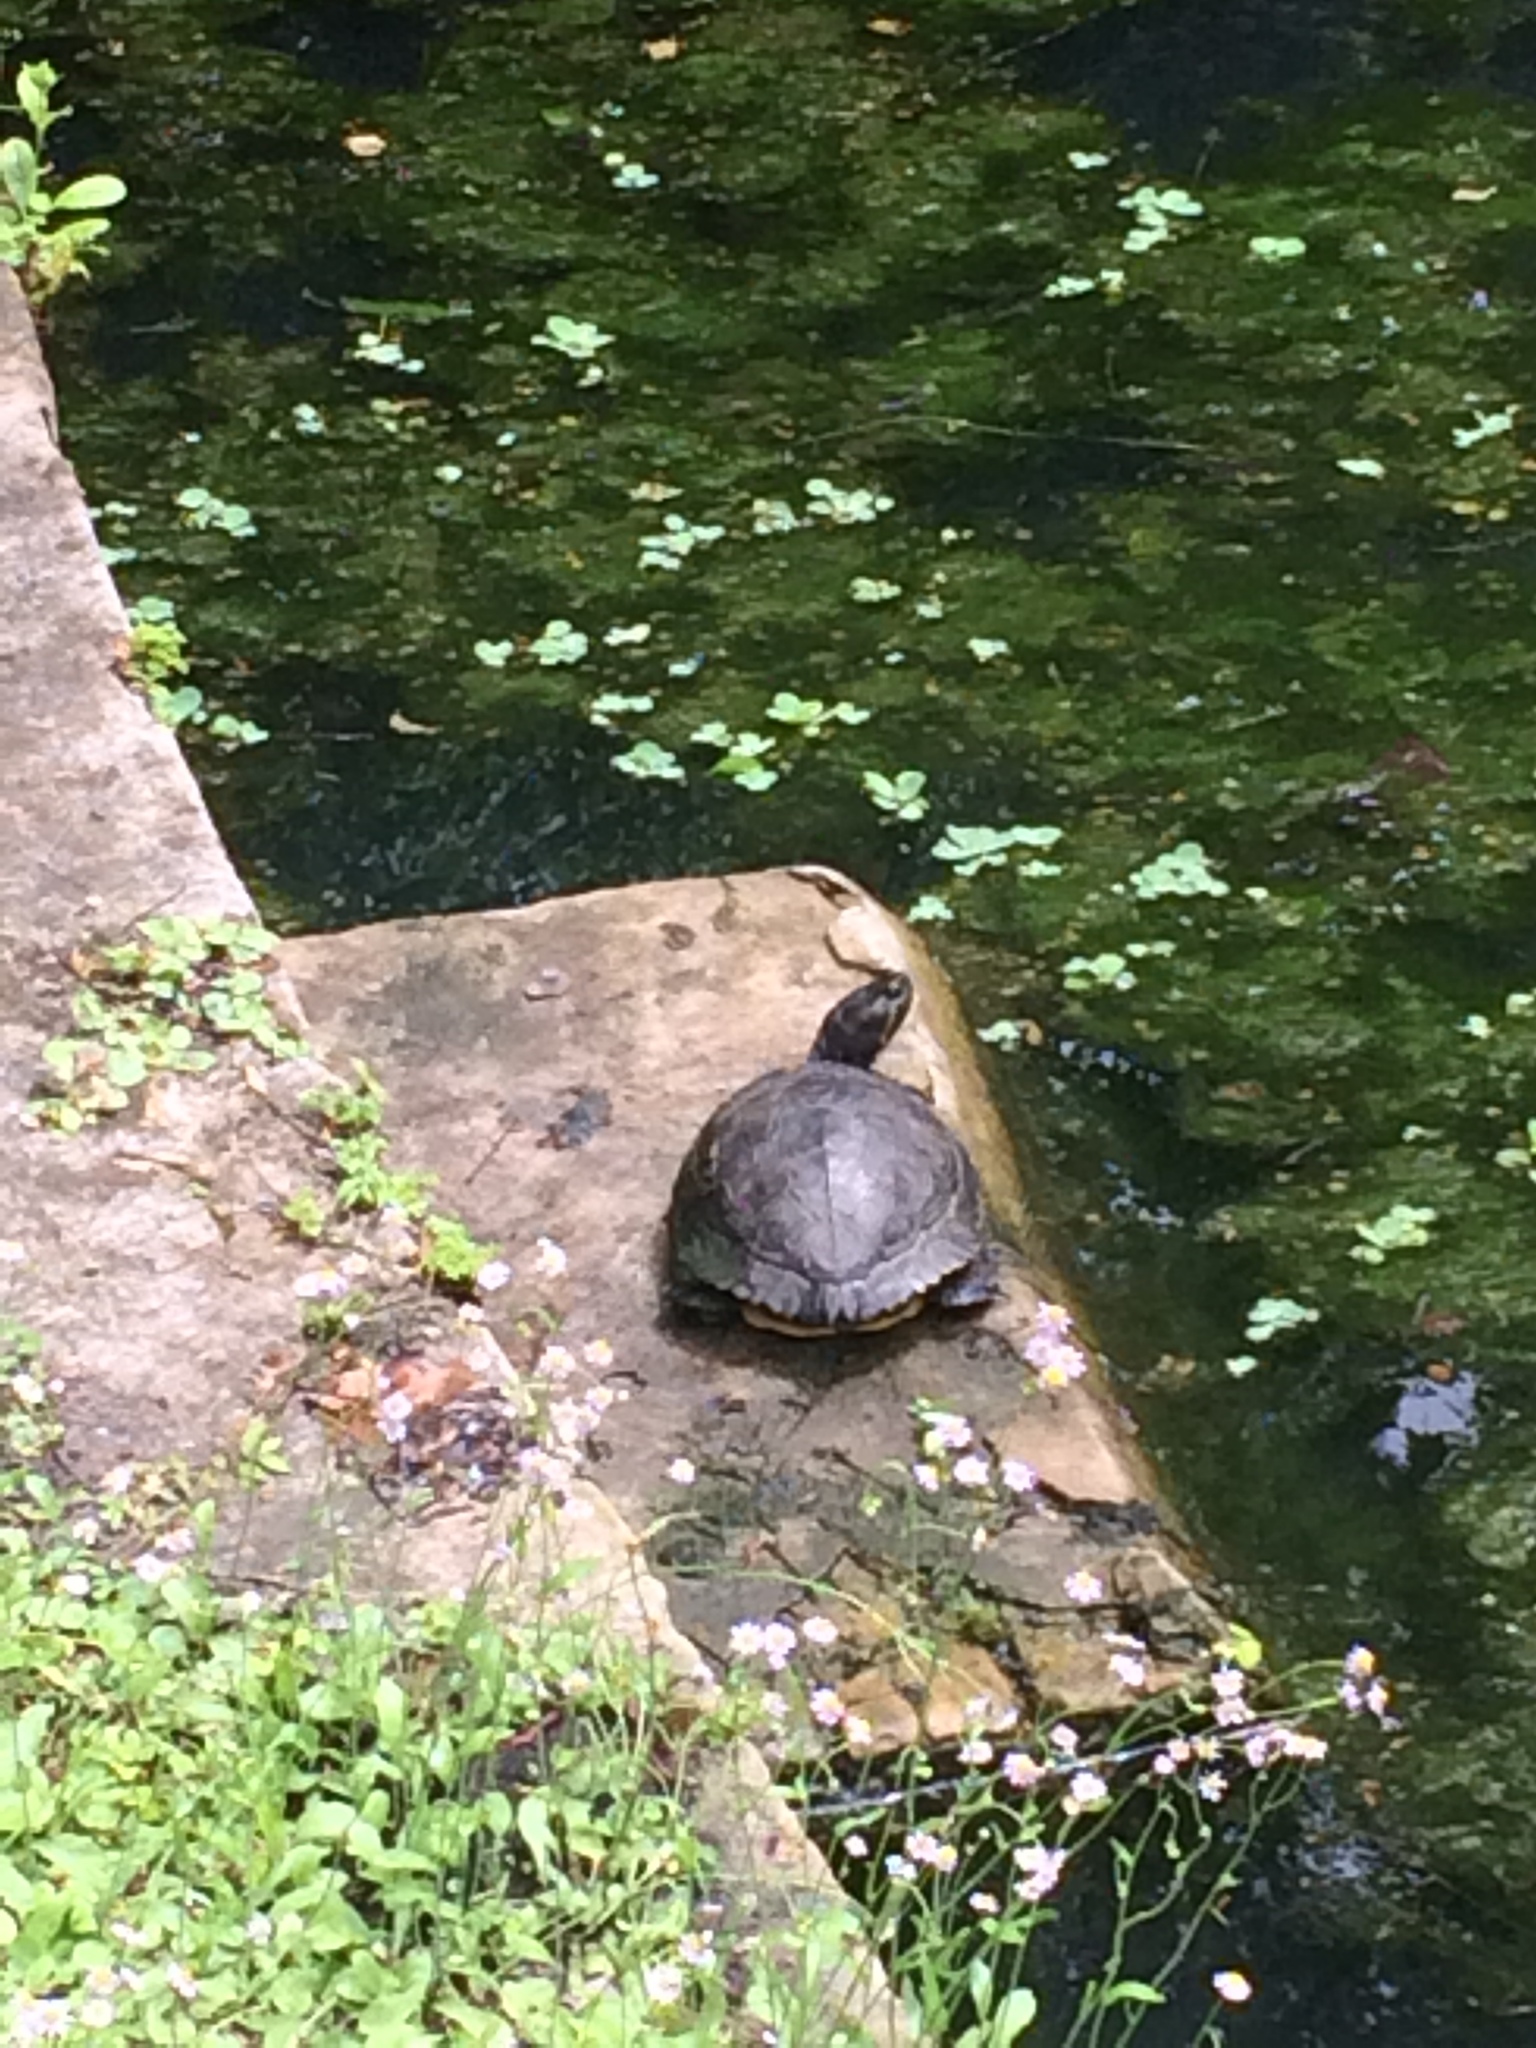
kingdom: Animalia
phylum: Chordata
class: Testudines
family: Emydidae
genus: Trachemys
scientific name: Trachemys scripta
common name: Slider
